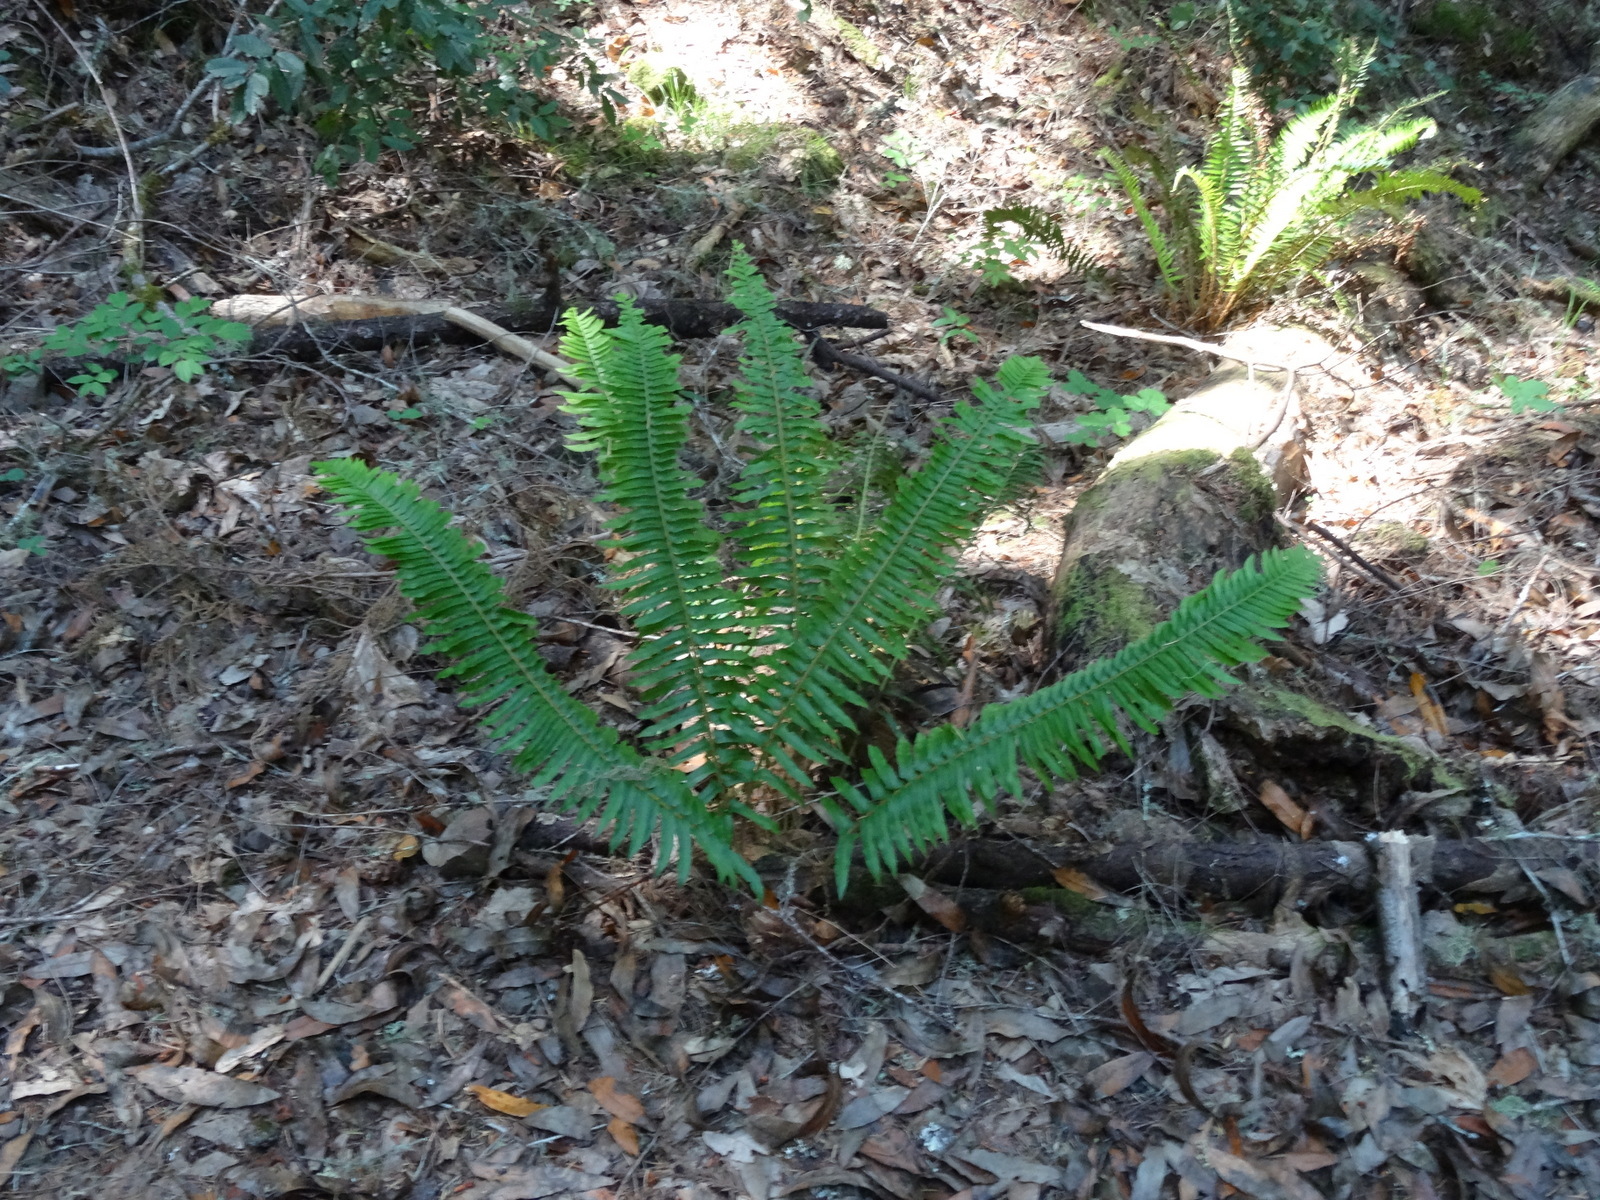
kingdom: Plantae
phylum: Tracheophyta
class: Polypodiopsida
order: Polypodiales
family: Dryopteridaceae
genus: Polystichum
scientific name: Polystichum munitum
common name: Western sword-fern
